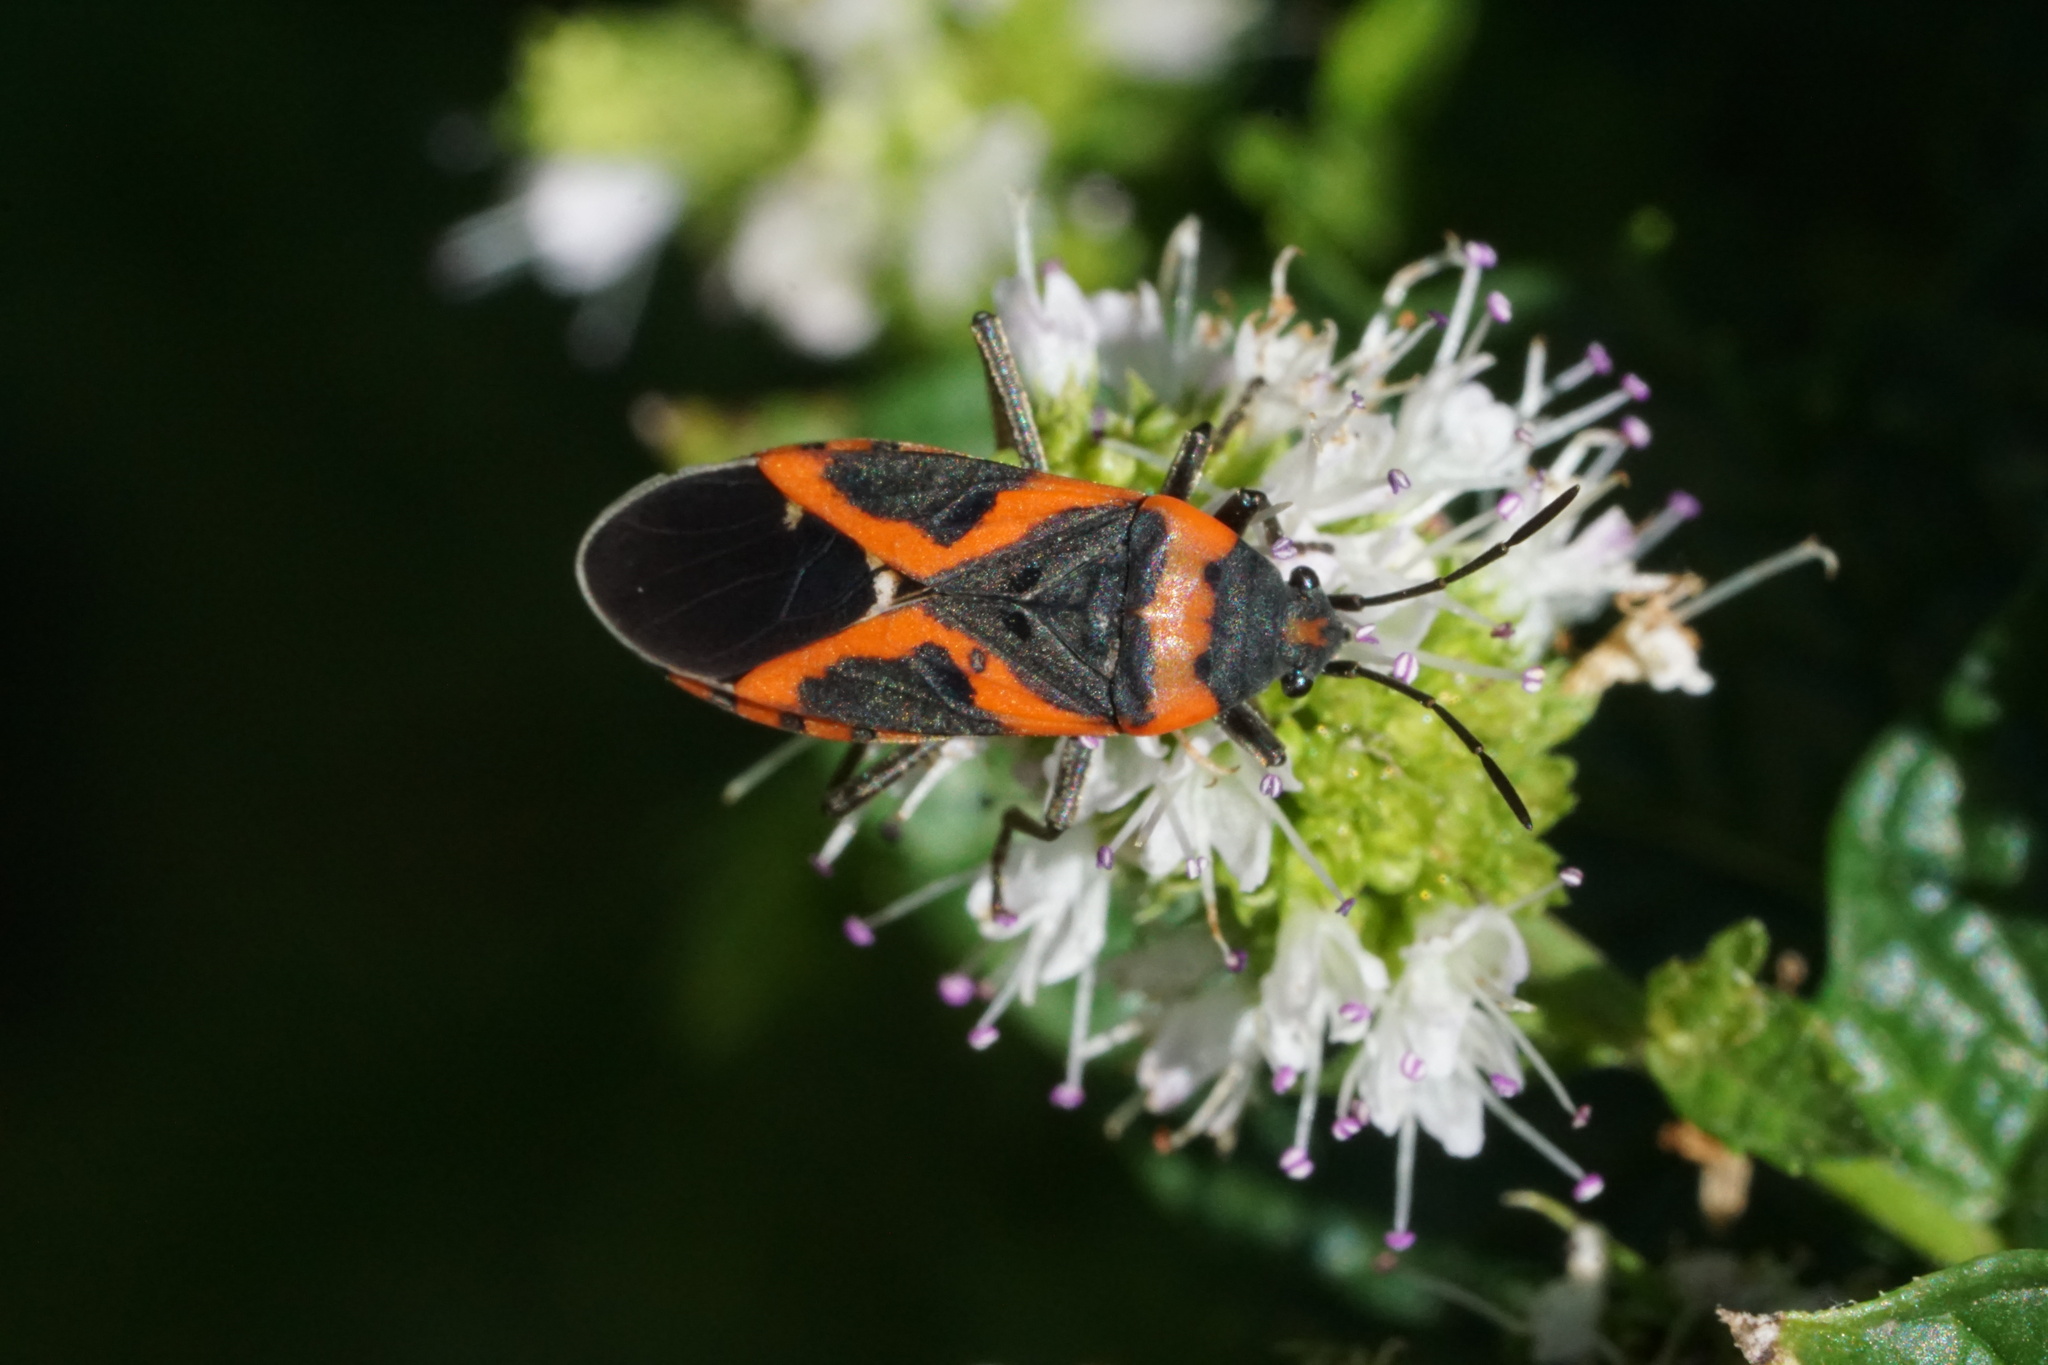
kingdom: Animalia
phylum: Arthropoda
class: Insecta
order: Hemiptera
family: Lygaeidae
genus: Lygaeus
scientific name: Lygaeus kalmii
